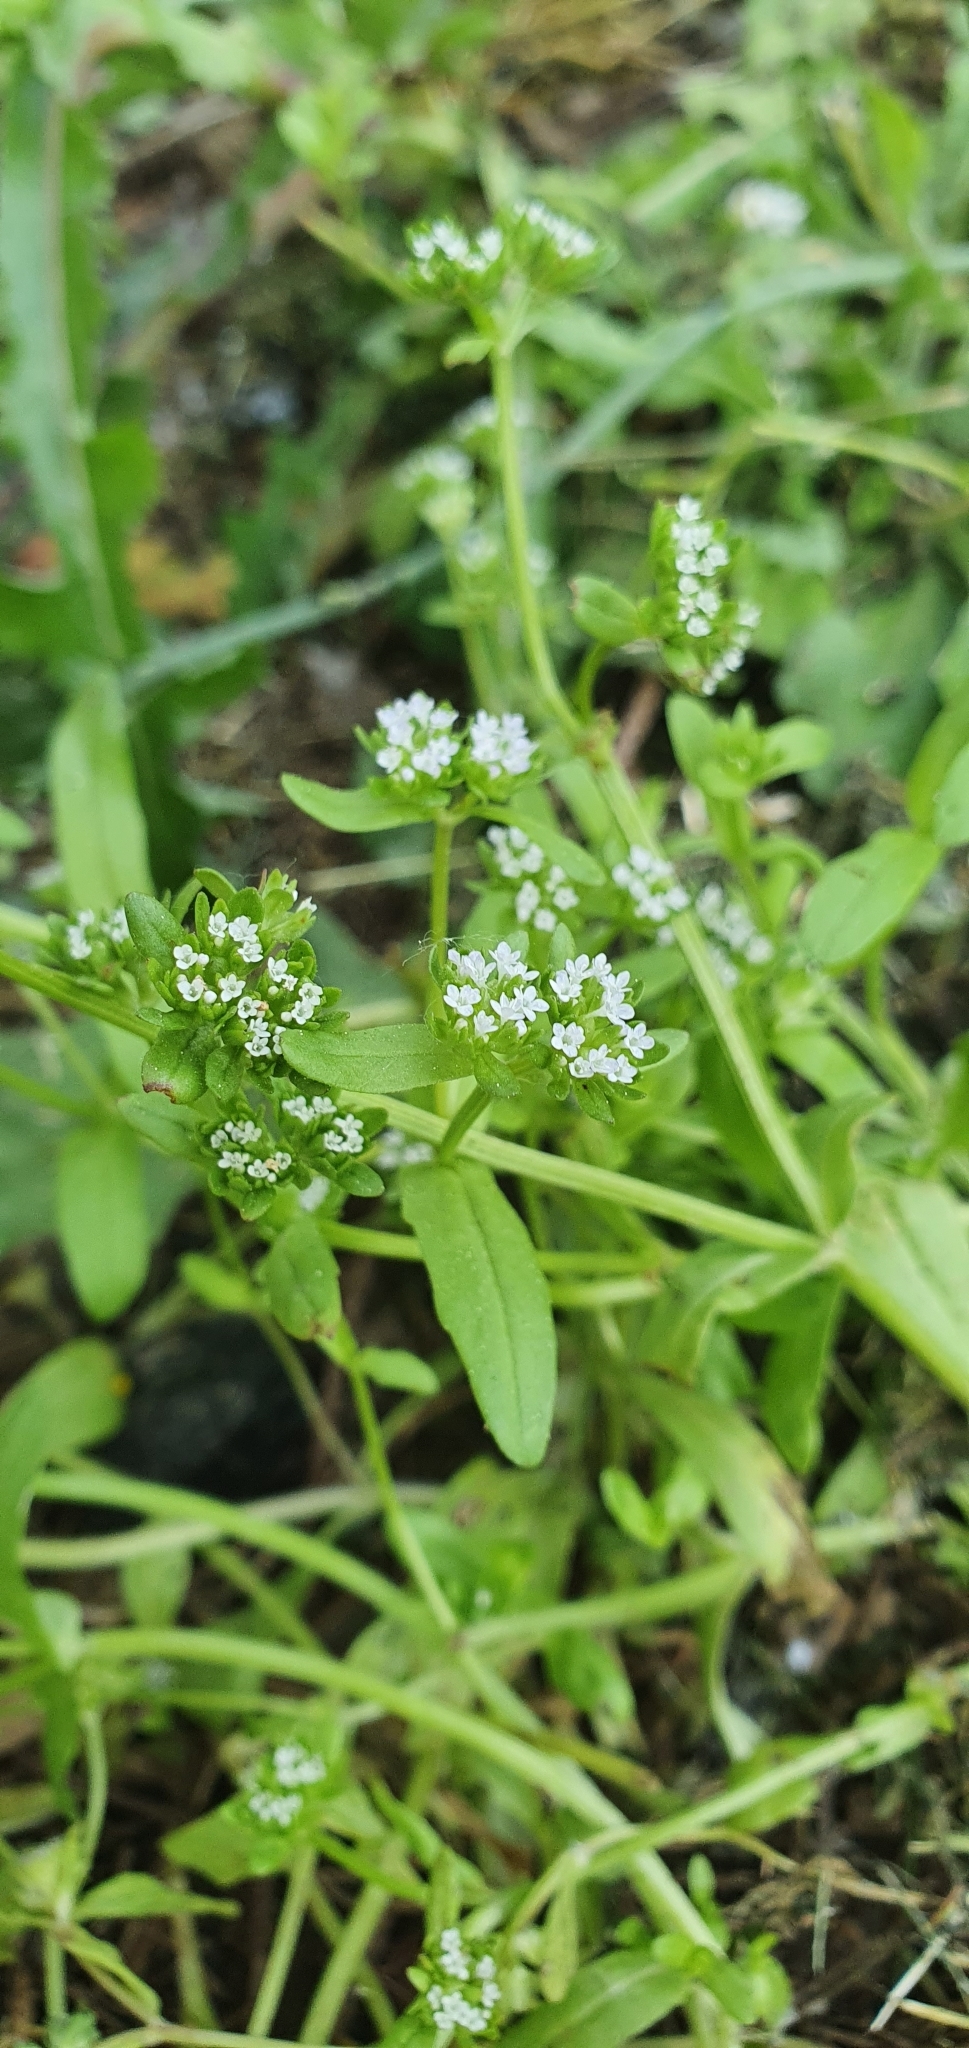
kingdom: Plantae
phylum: Tracheophyta
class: Magnoliopsida
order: Dipsacales
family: Caprifoliaceae
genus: Valerianella
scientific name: Valerianella locusta
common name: Common cornsalad
